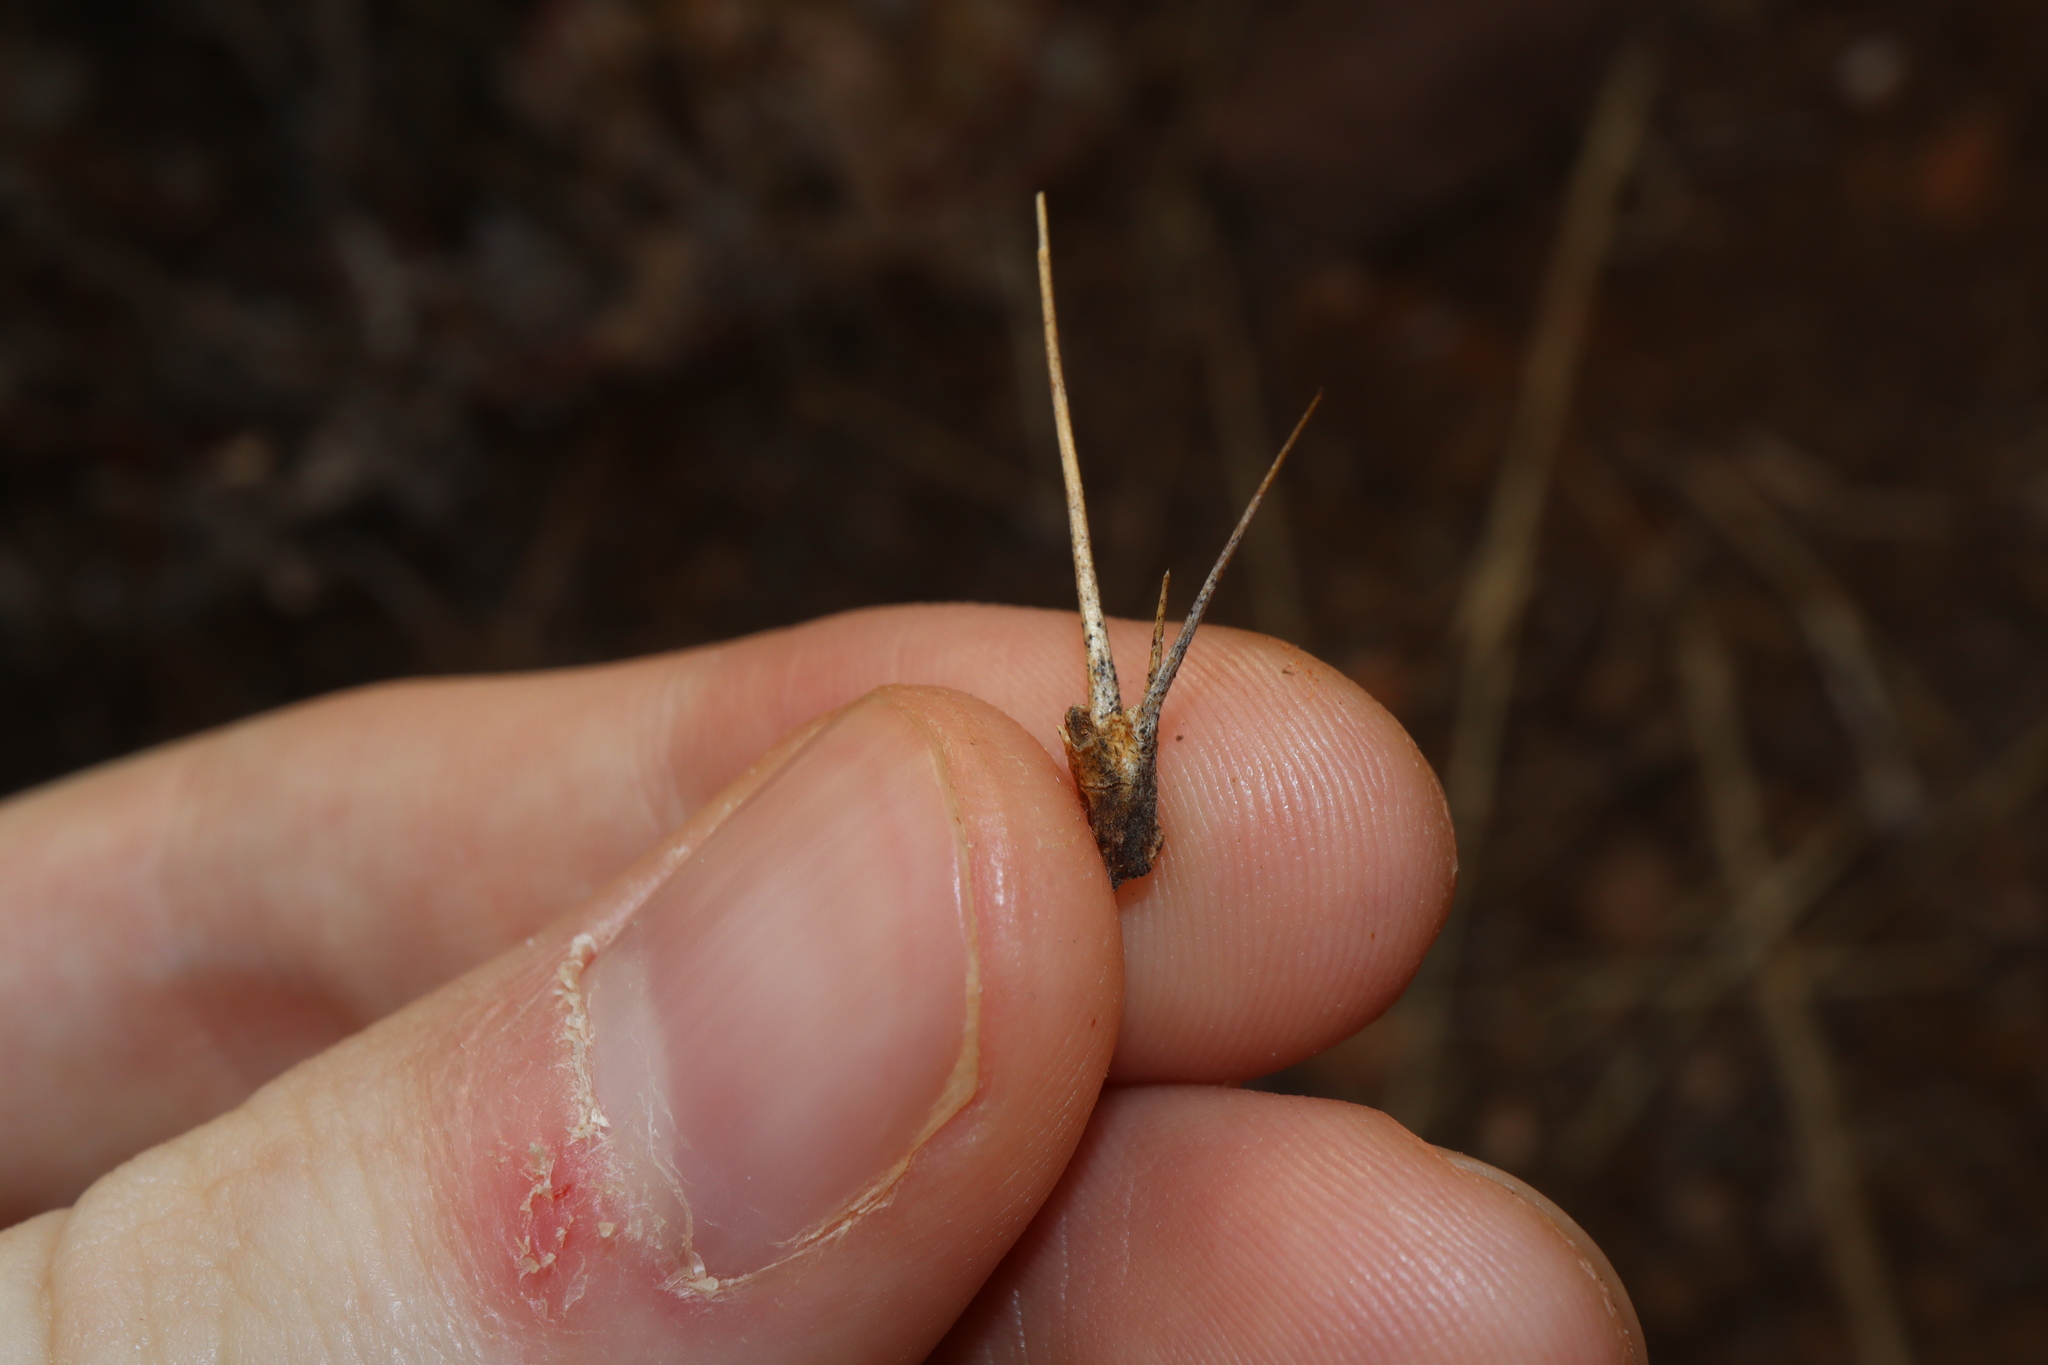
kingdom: Plantae
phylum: Tracheophyta
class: Magnoliopsida
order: Caryophyllales
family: Amaranthaceae
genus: Sclerolaena
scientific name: Sclerolaena longicuspis
